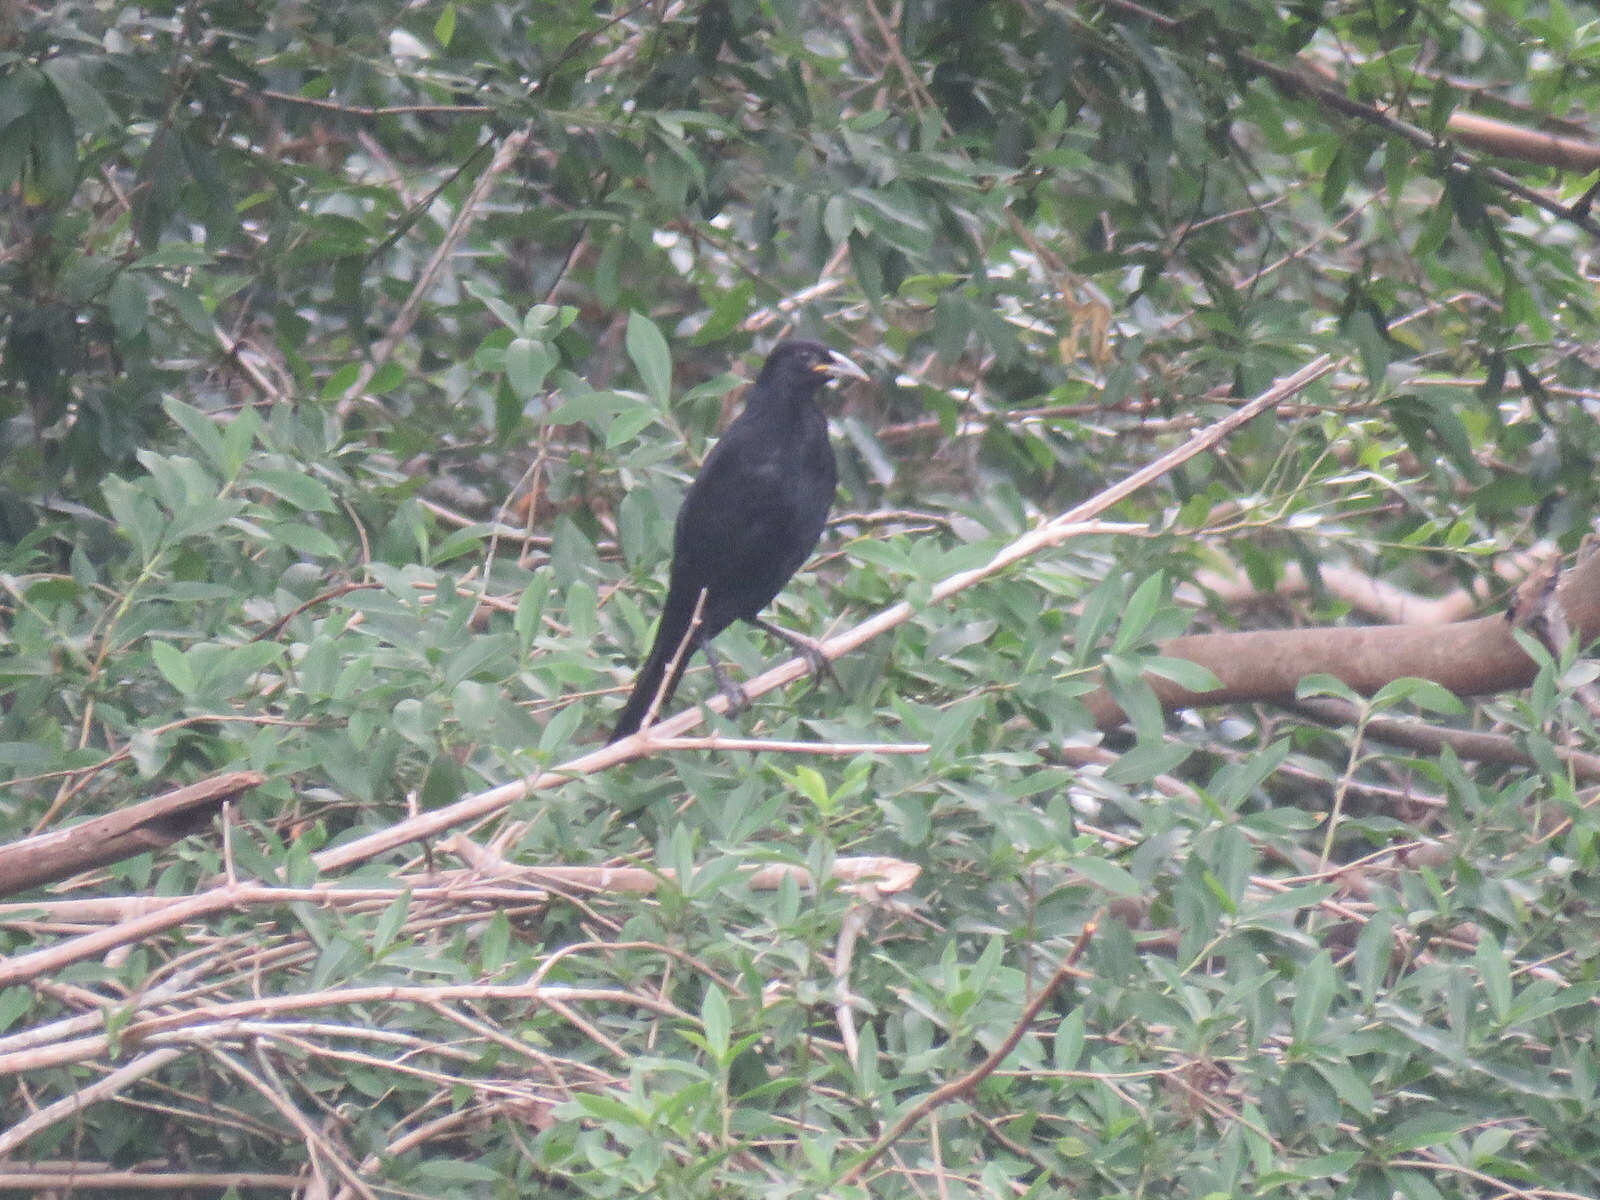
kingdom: Animalia
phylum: Chordata
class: Aves
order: Passeriformes
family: Icteridae
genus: Molothrus
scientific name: Molothrus oryzivorus
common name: Giant cowbird
